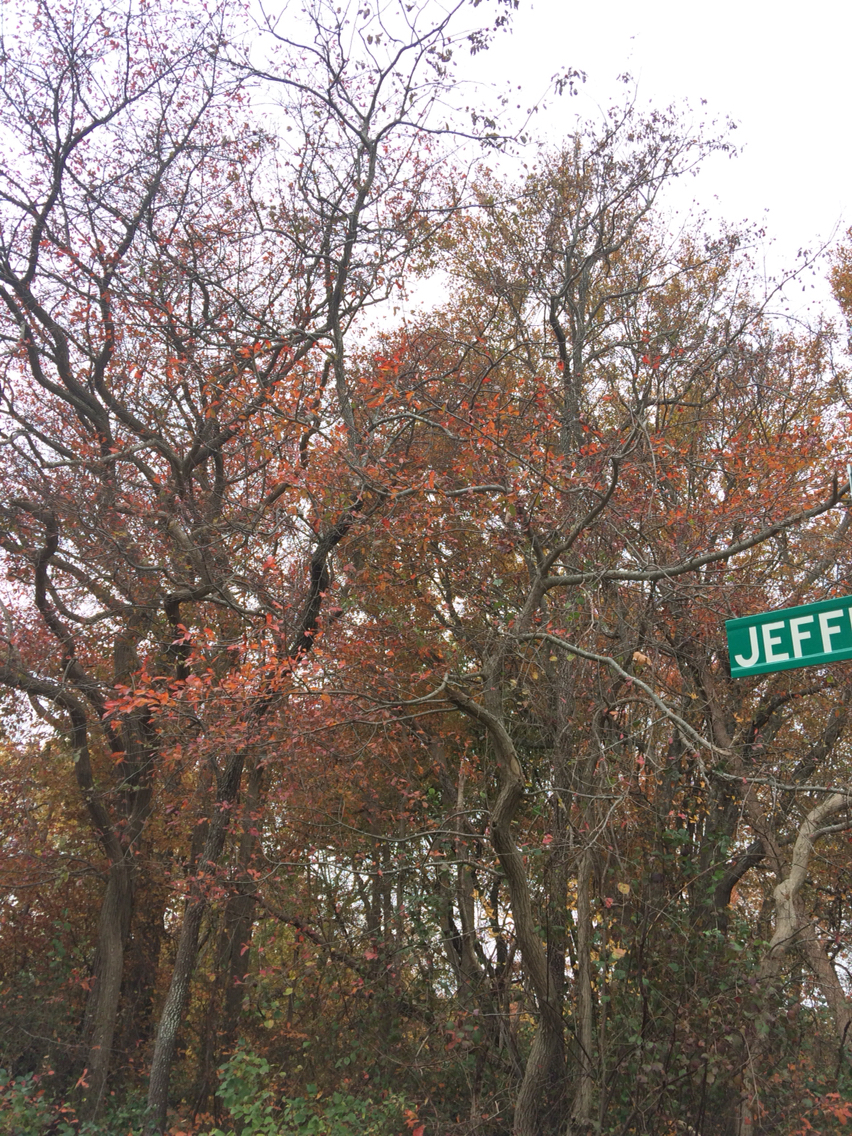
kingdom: Plantae
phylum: Tracheophyta
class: Magnoliopsida
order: Cornales
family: Nyssaceae
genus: Nyssa
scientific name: Nyssa sylvatica
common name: Black tupelo
